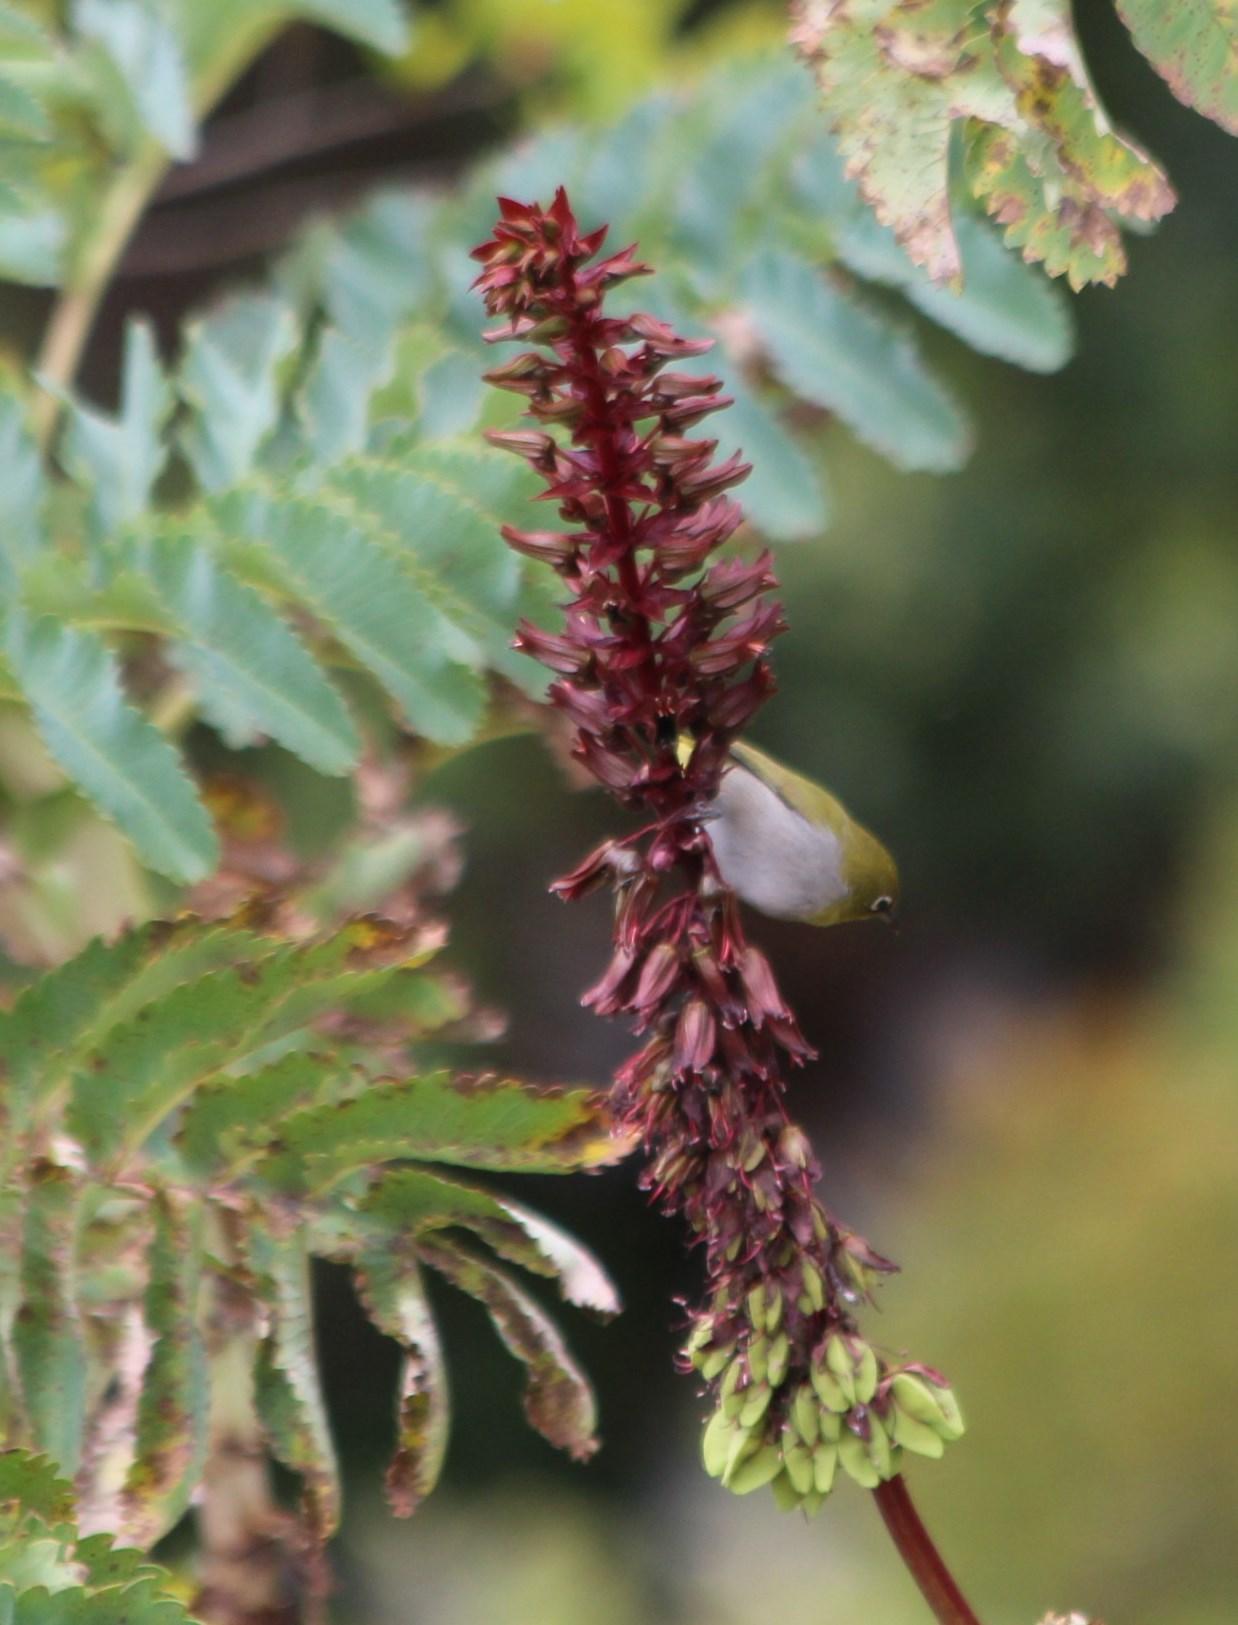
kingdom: Plantae
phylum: Tracheophyta
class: Magnoliopsida
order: Geraniales
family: Melianthaceae
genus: Melianthus
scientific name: Melianthus major
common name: Honey-flower
